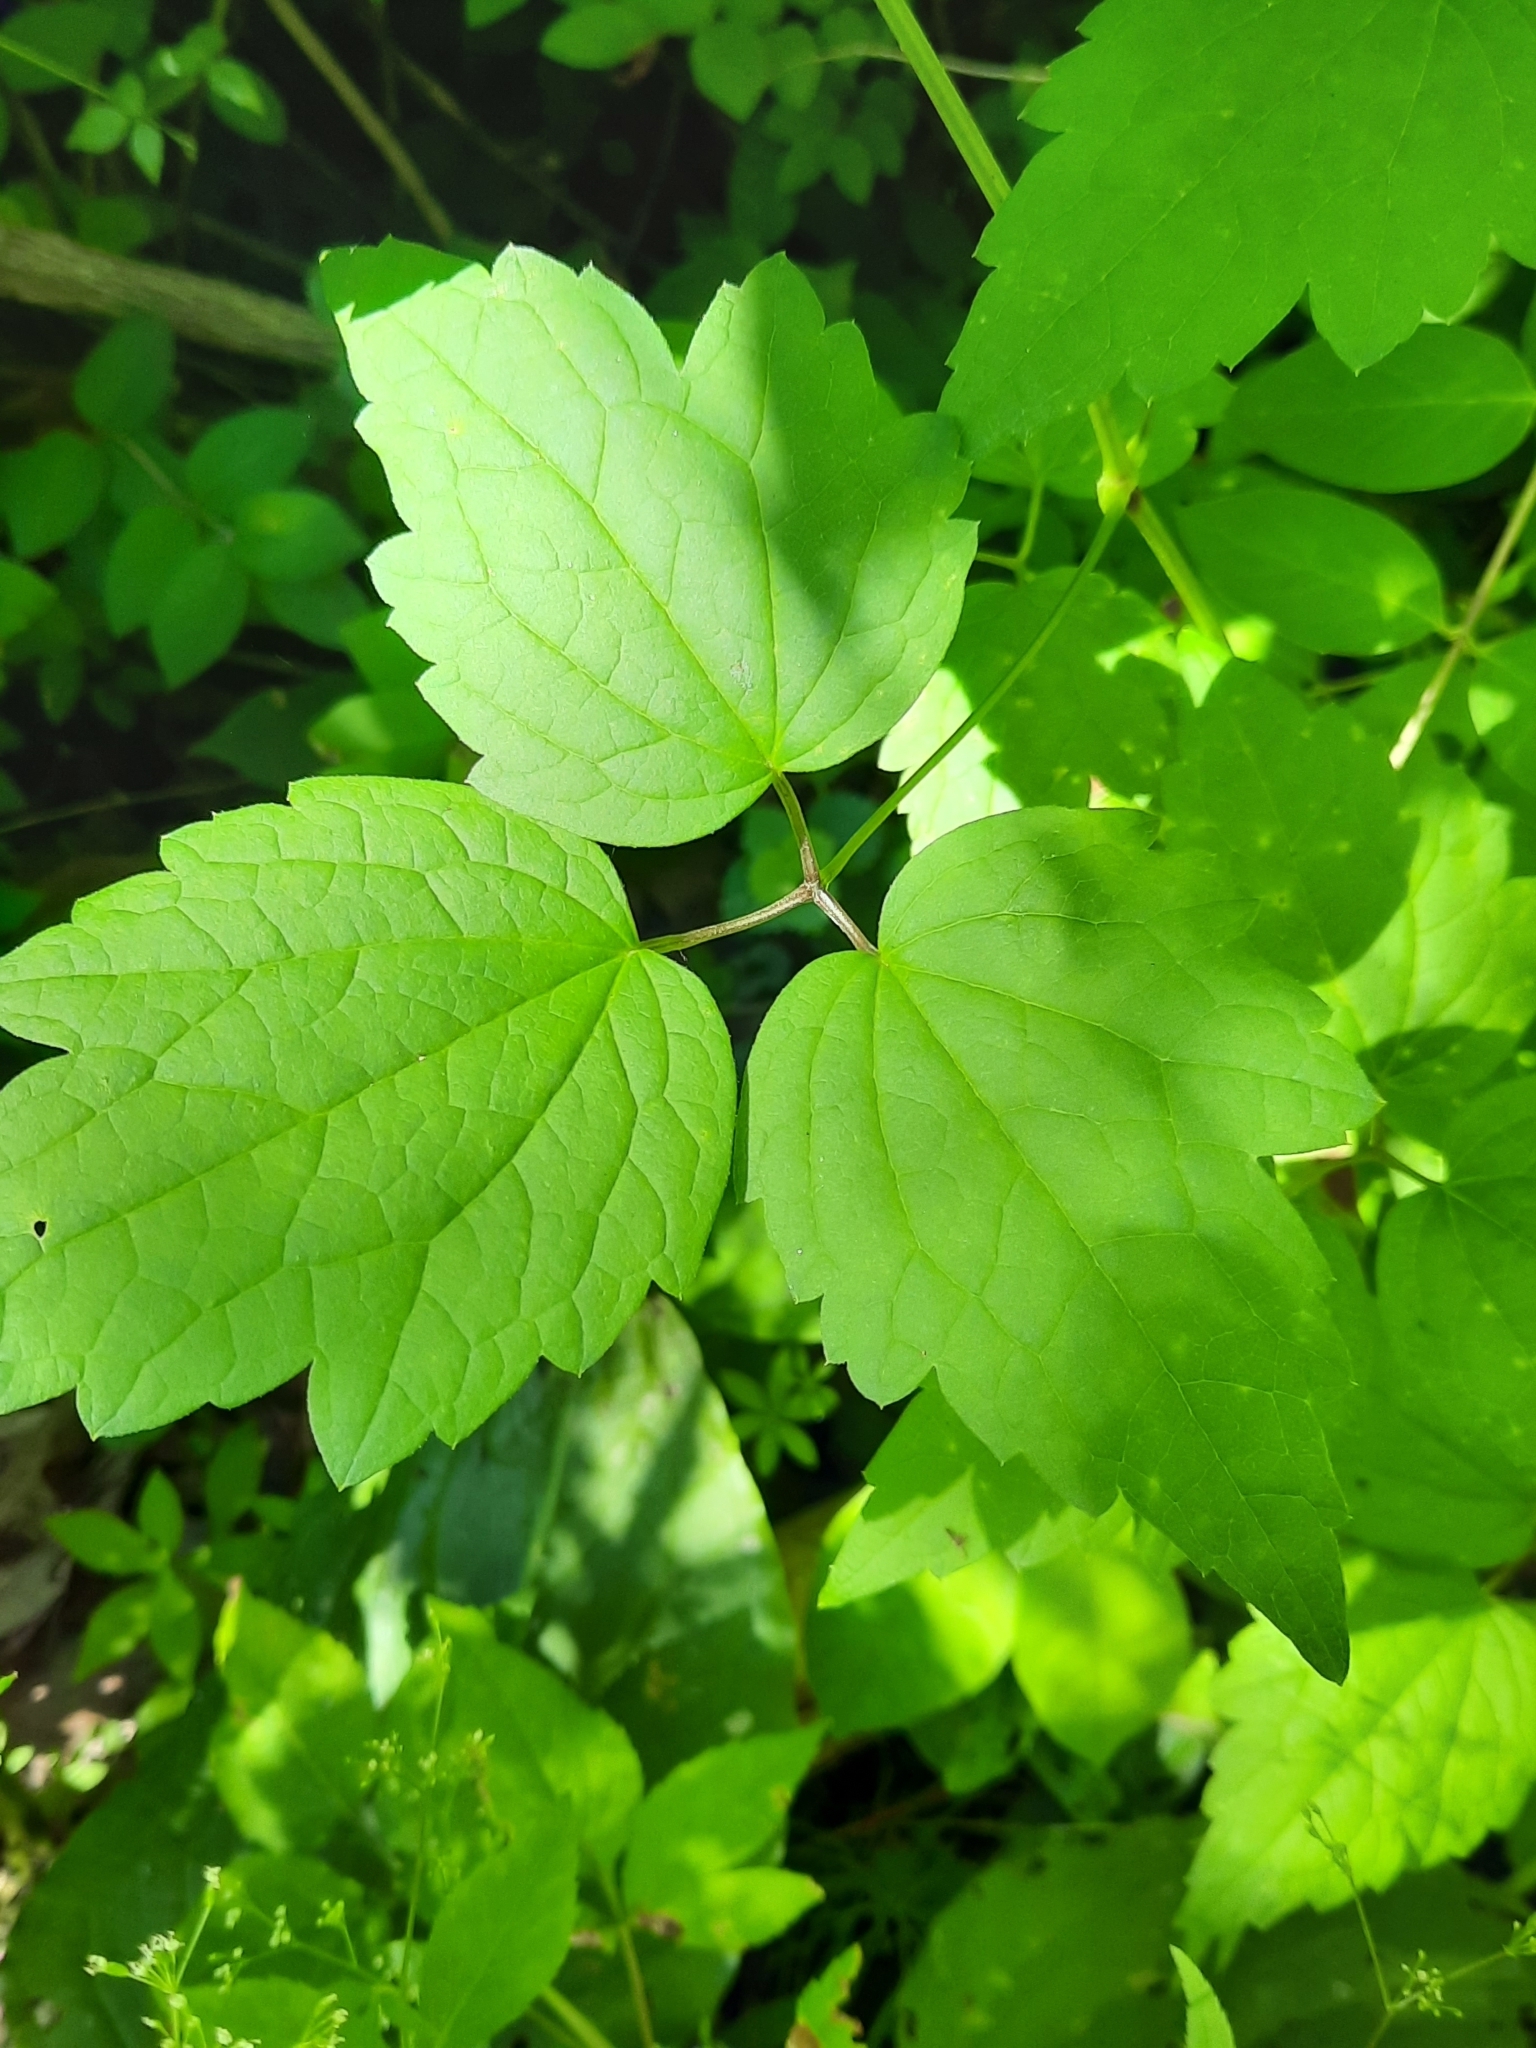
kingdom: Plantae
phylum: Tracheophyta
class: Magnoliopsida
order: Ranunculales
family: Ranunculaceae
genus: Clematis
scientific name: Clematis virginiana
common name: Virgin's-bower
